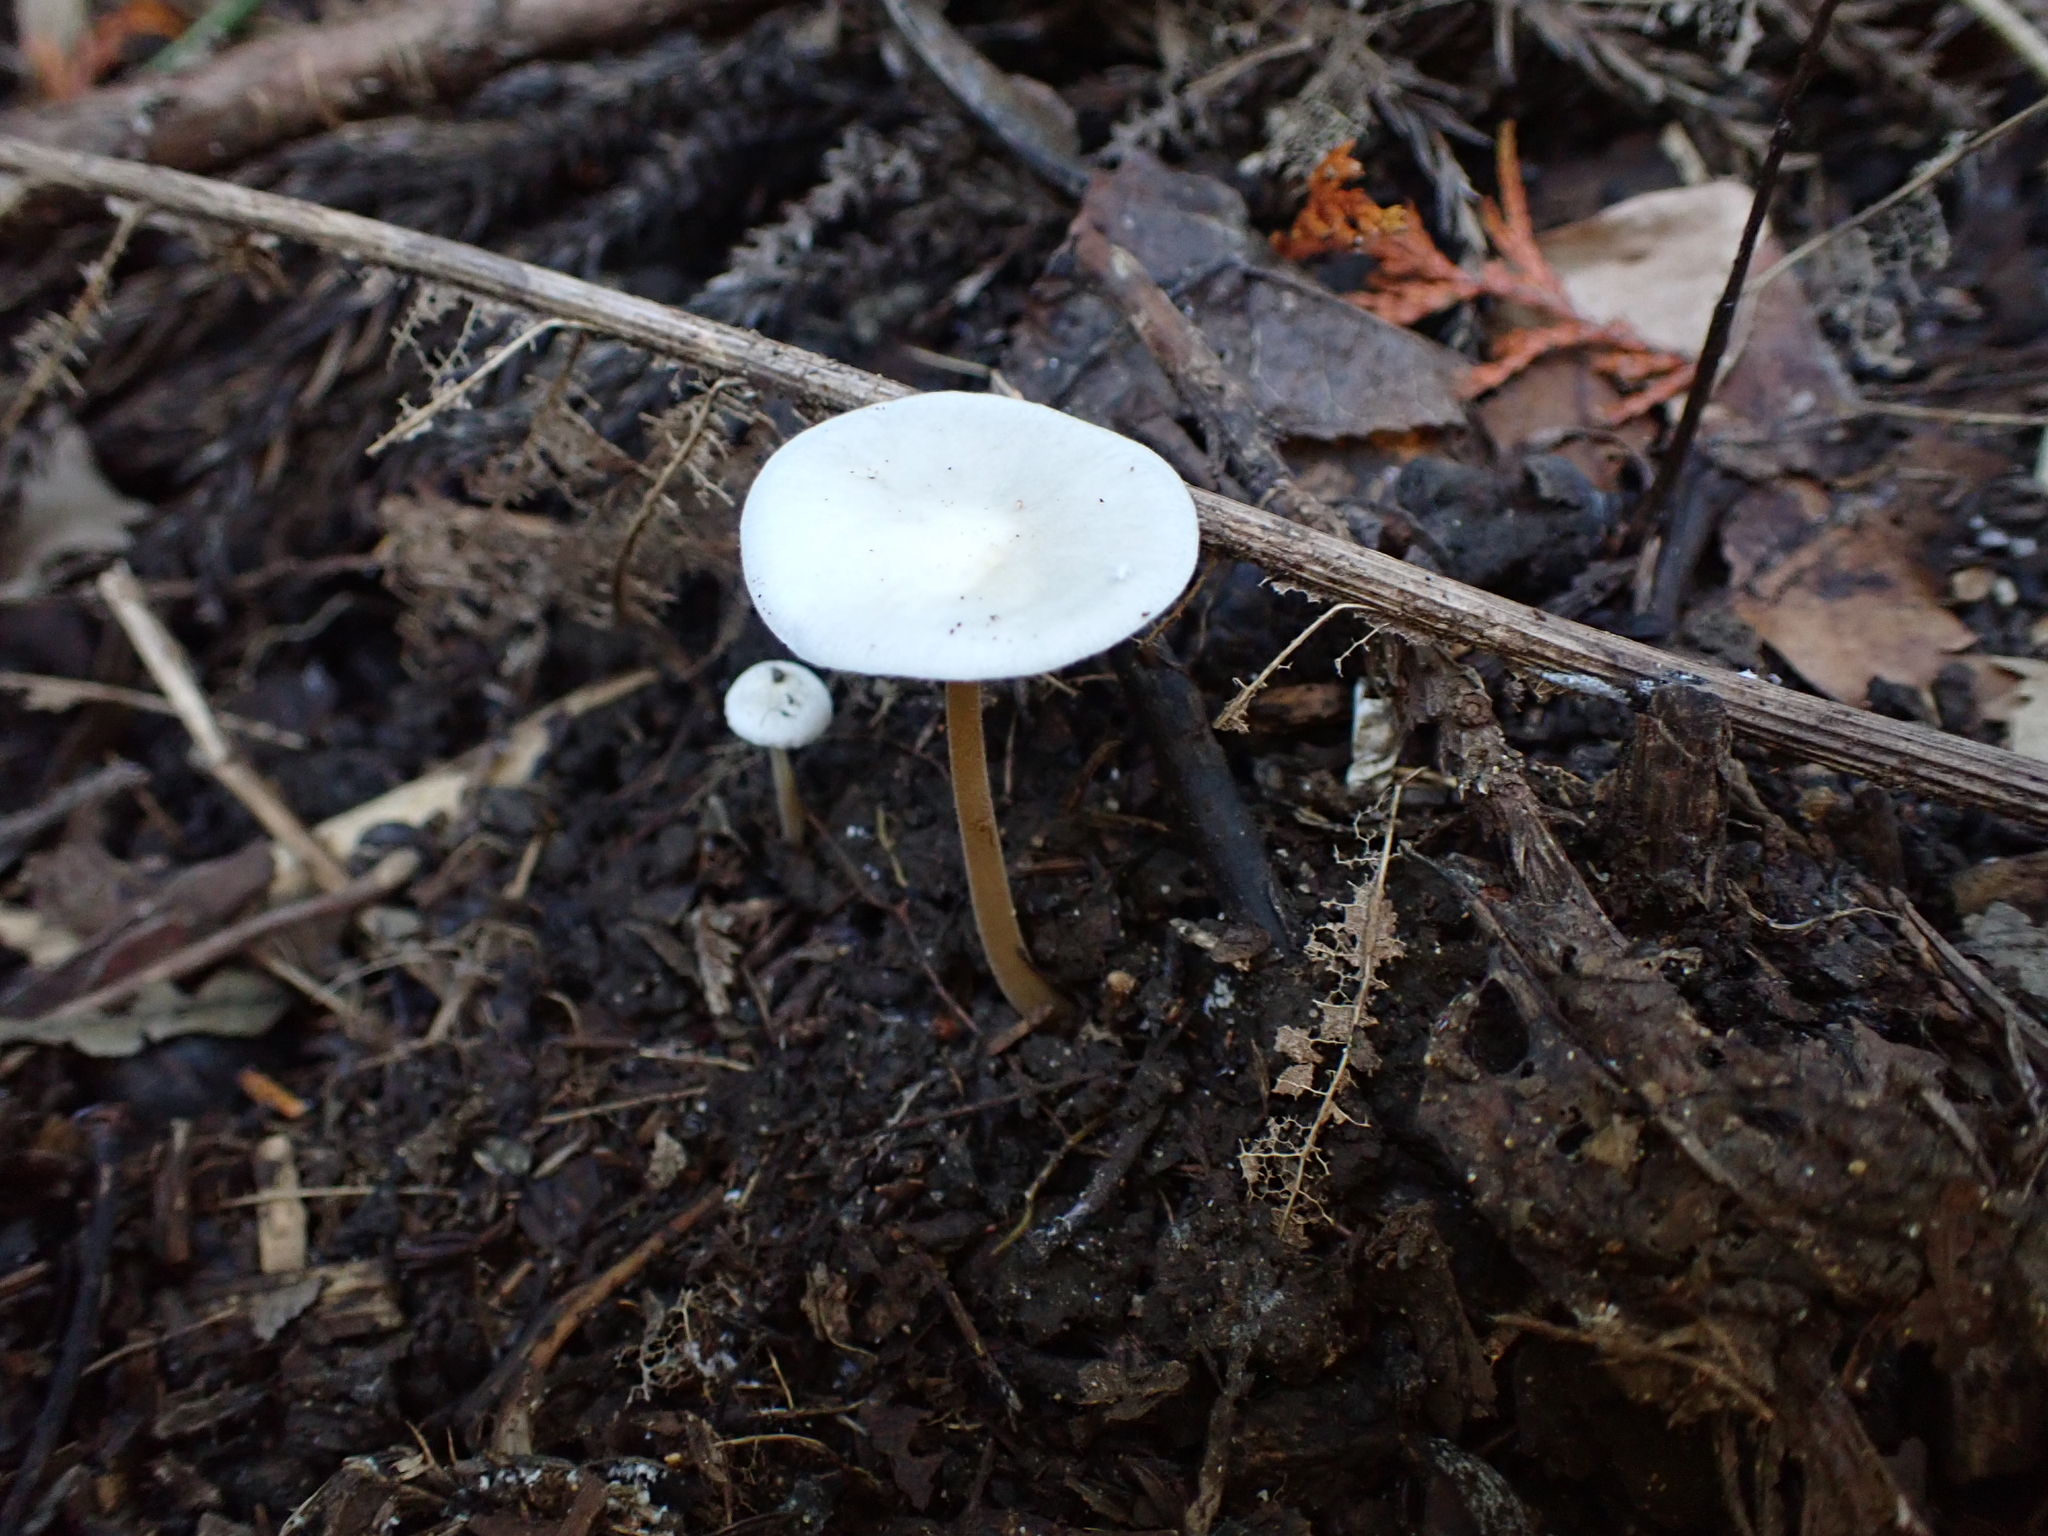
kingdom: Fungi
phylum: Basidiomycota
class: Agaricomycetes
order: Agaricales
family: Physalacriaceae
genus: Strobilurus
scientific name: Strobilurus ohshimae
